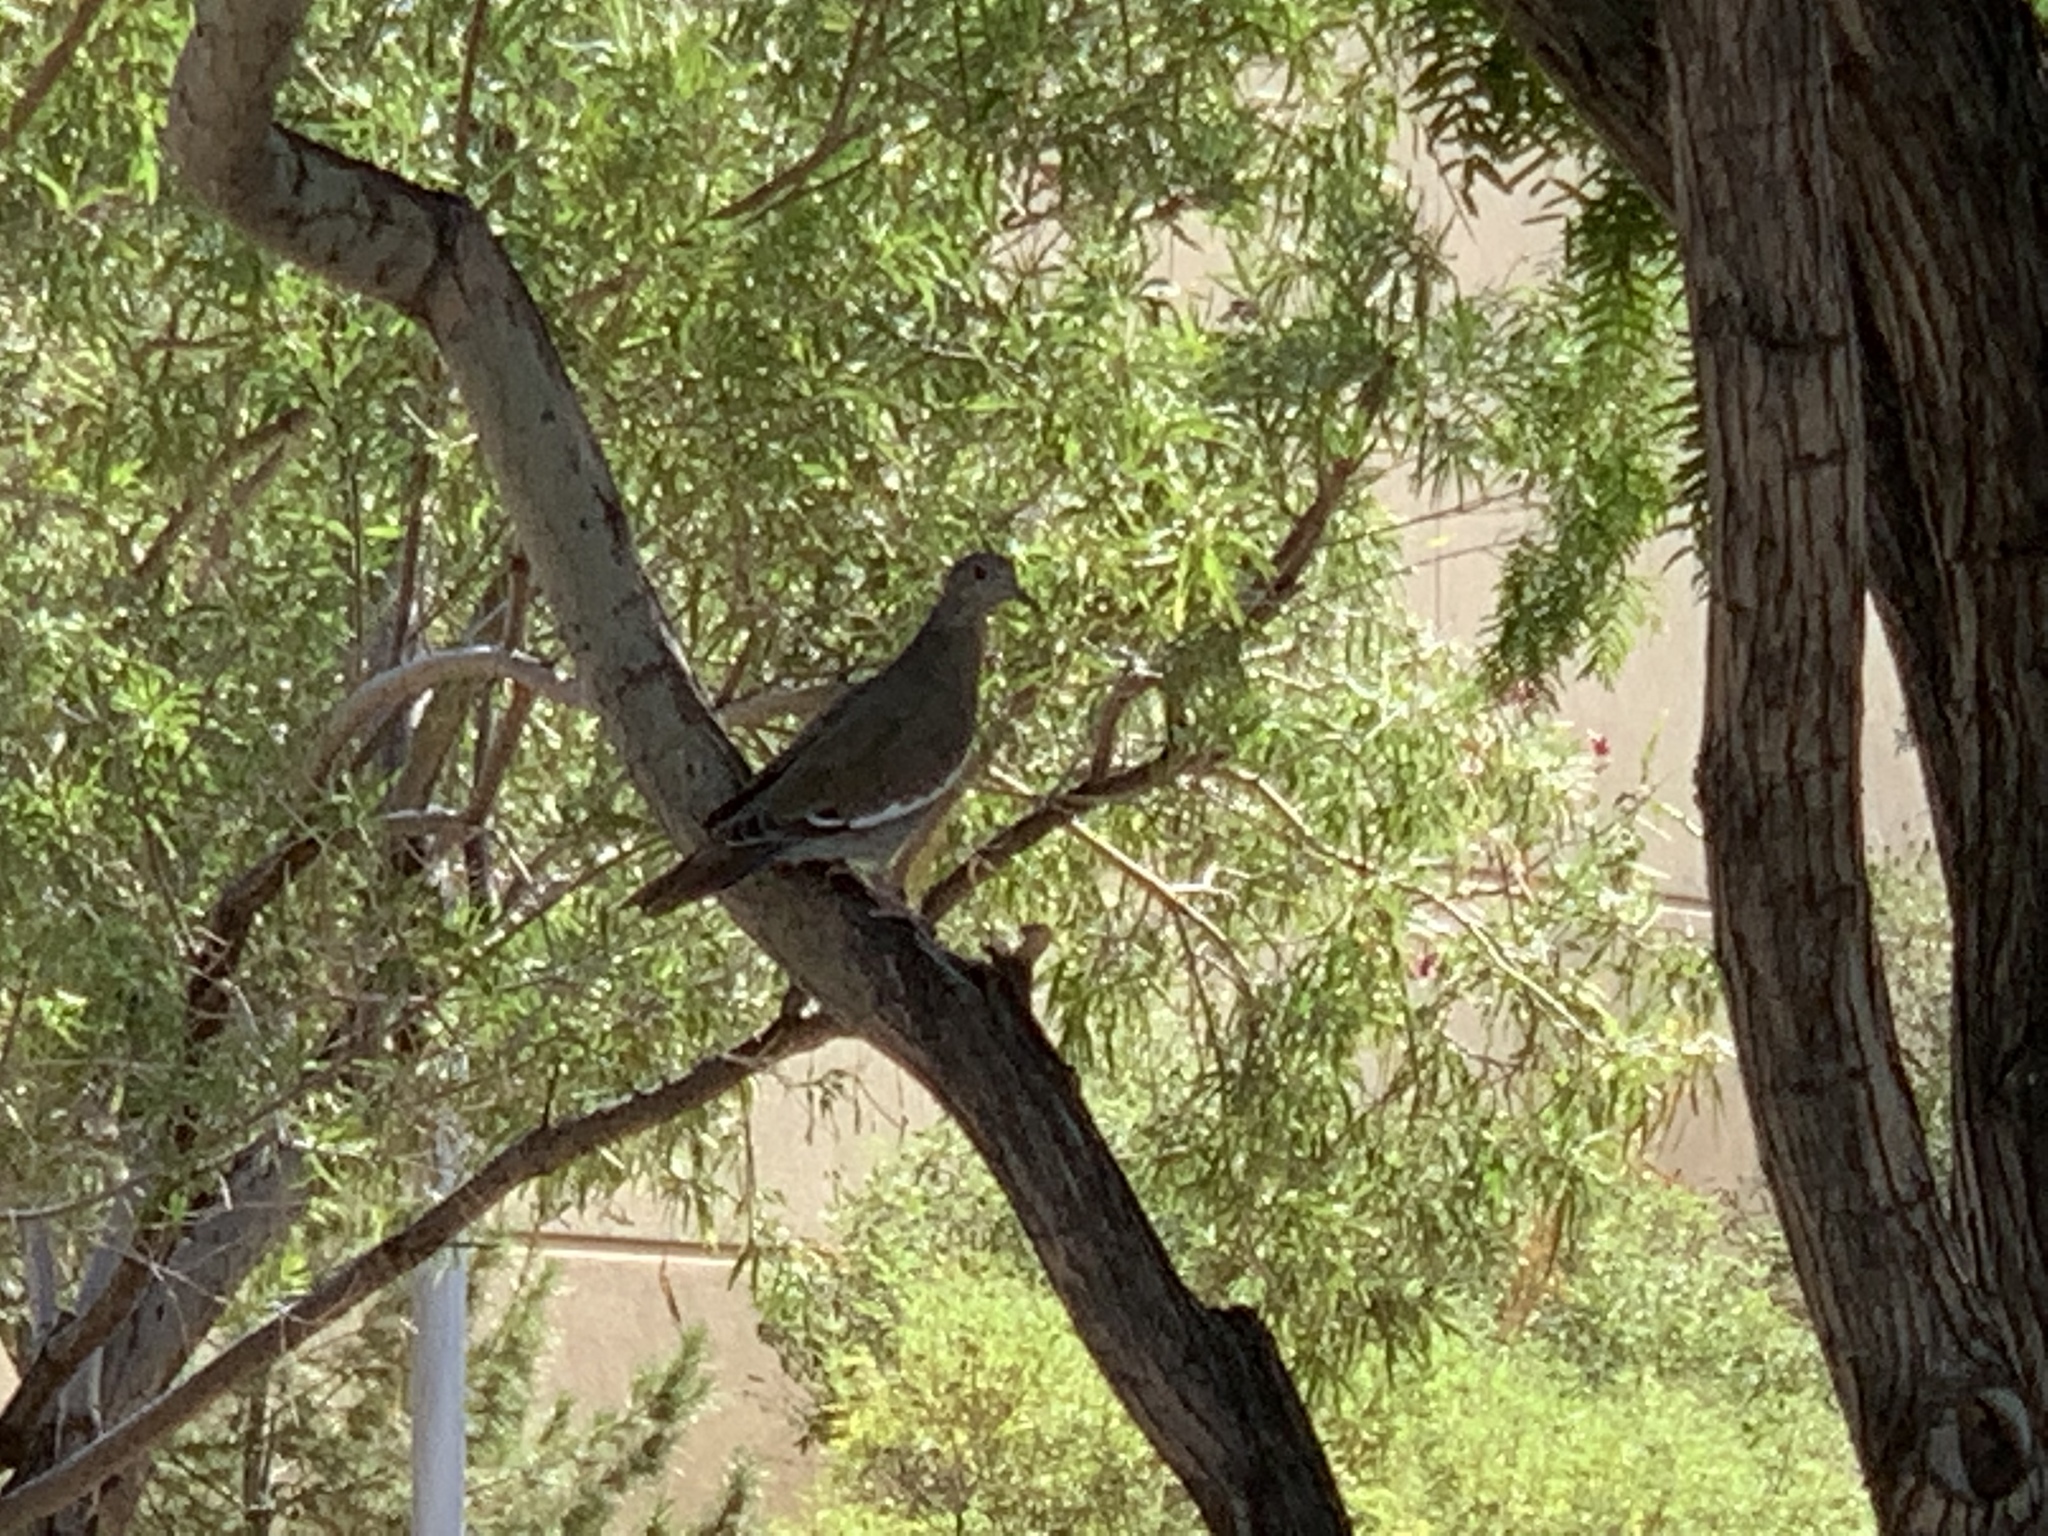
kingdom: Animalia
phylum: Chordata
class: Aves
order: Columbiformes
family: Columbidae
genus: Zenaida
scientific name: Zenaida asiatica
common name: White-winged dove
